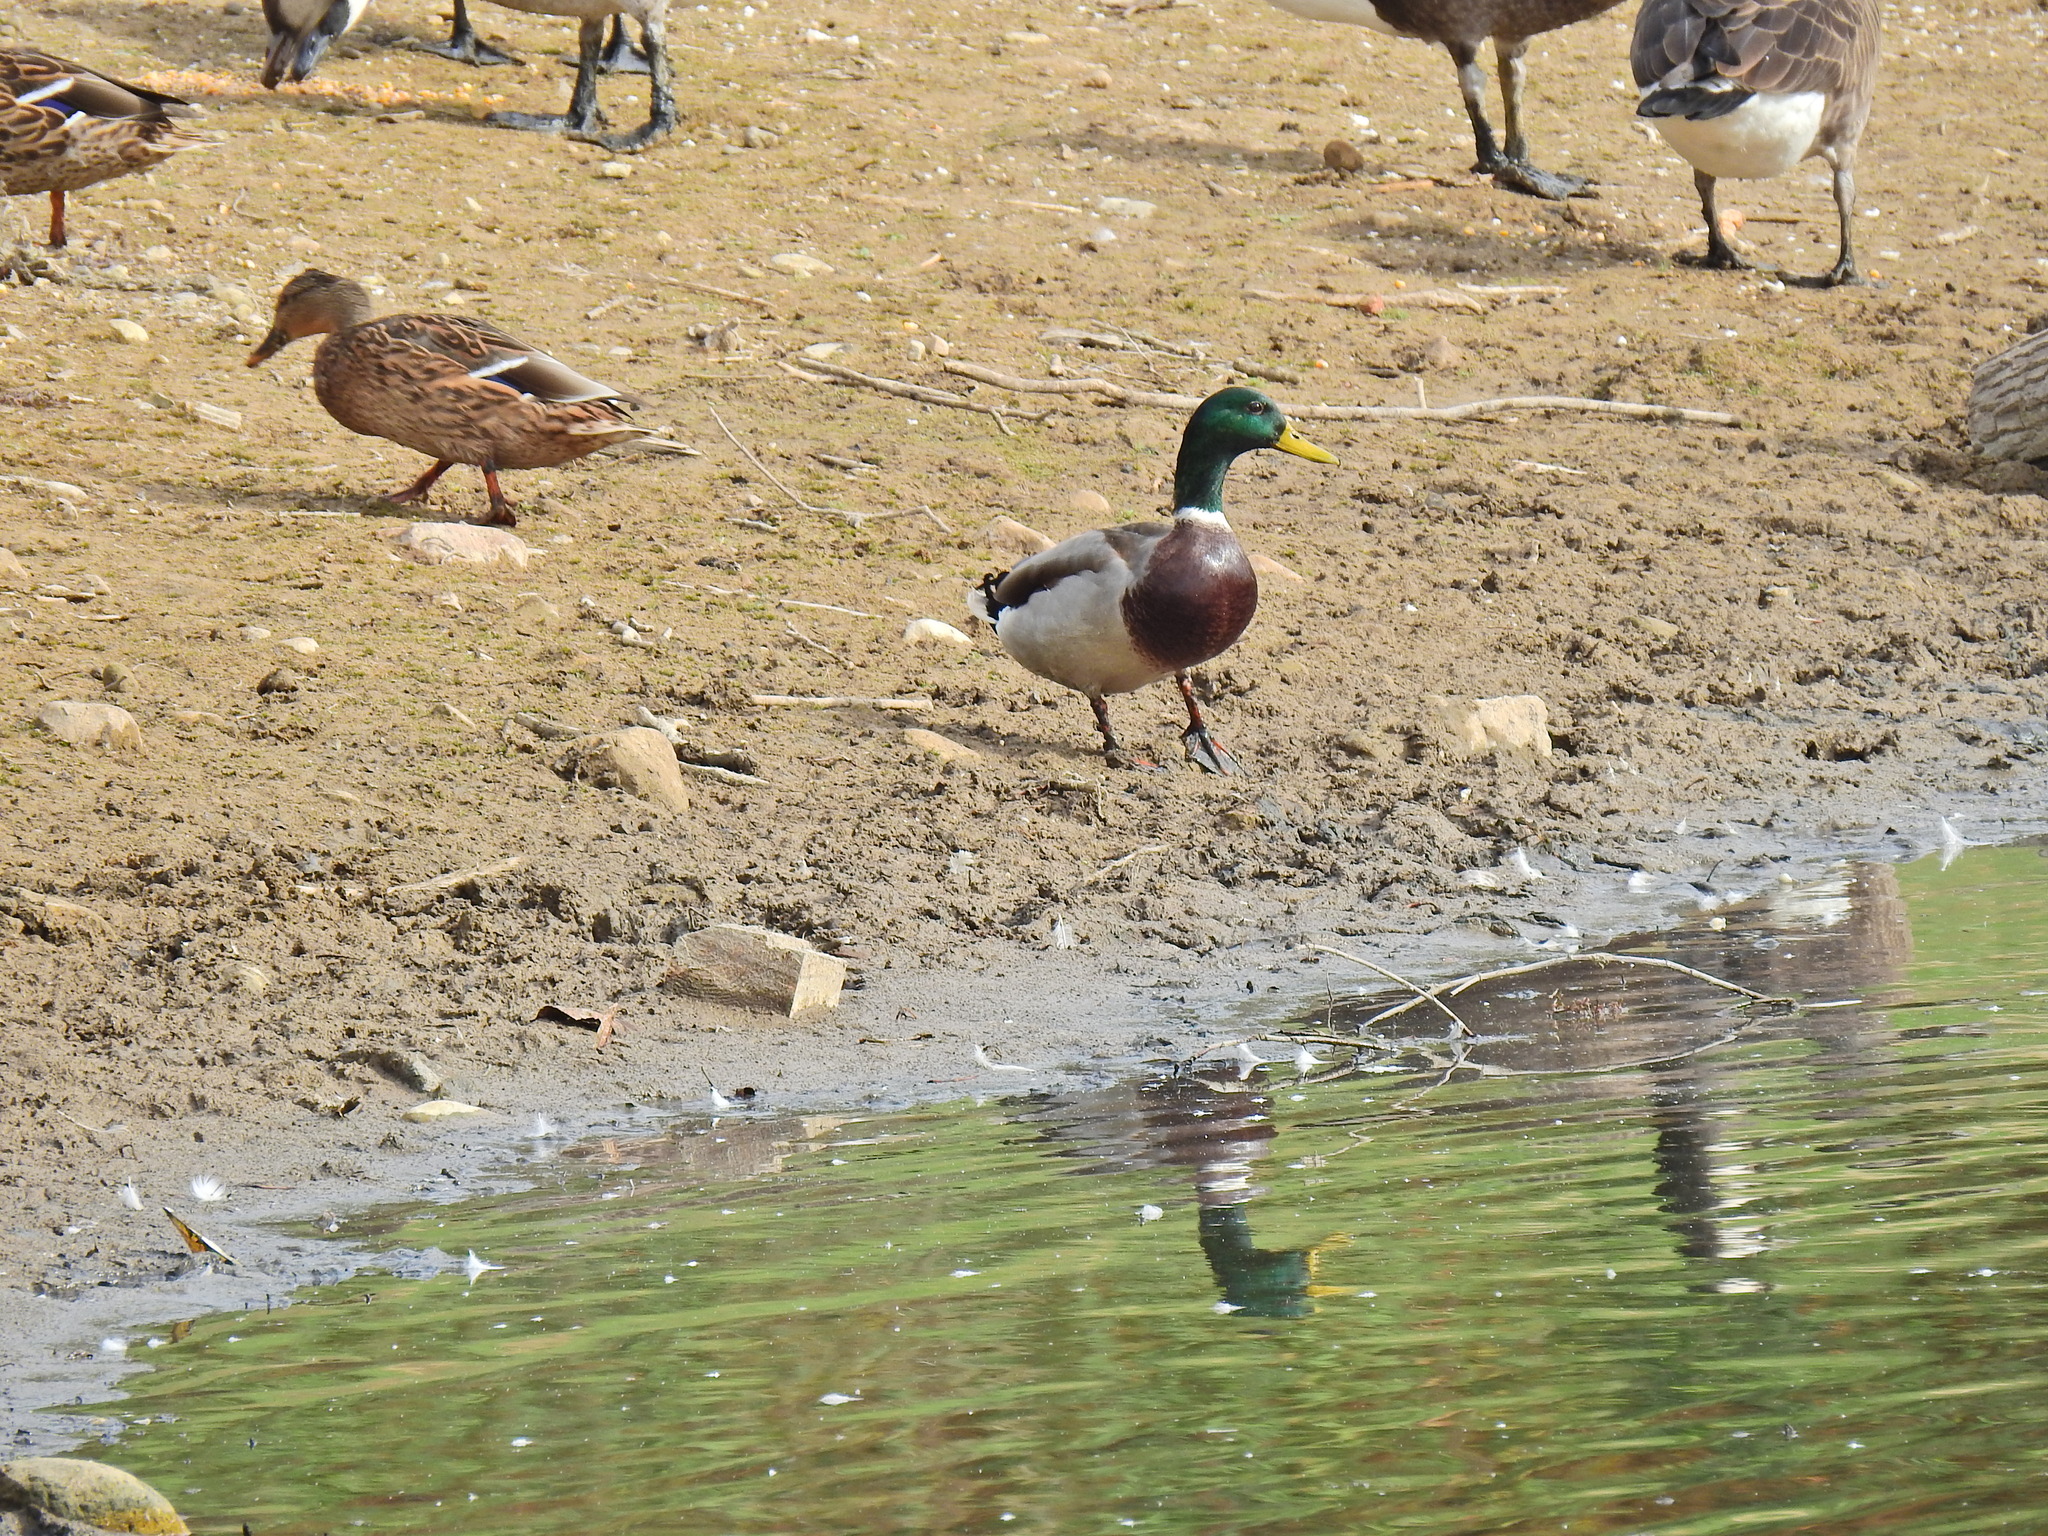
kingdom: Animalia
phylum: Chordata
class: Aves
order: Anseriformes
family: Anatidae
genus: Anas
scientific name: Anas platyrhynchos
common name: Mallard
